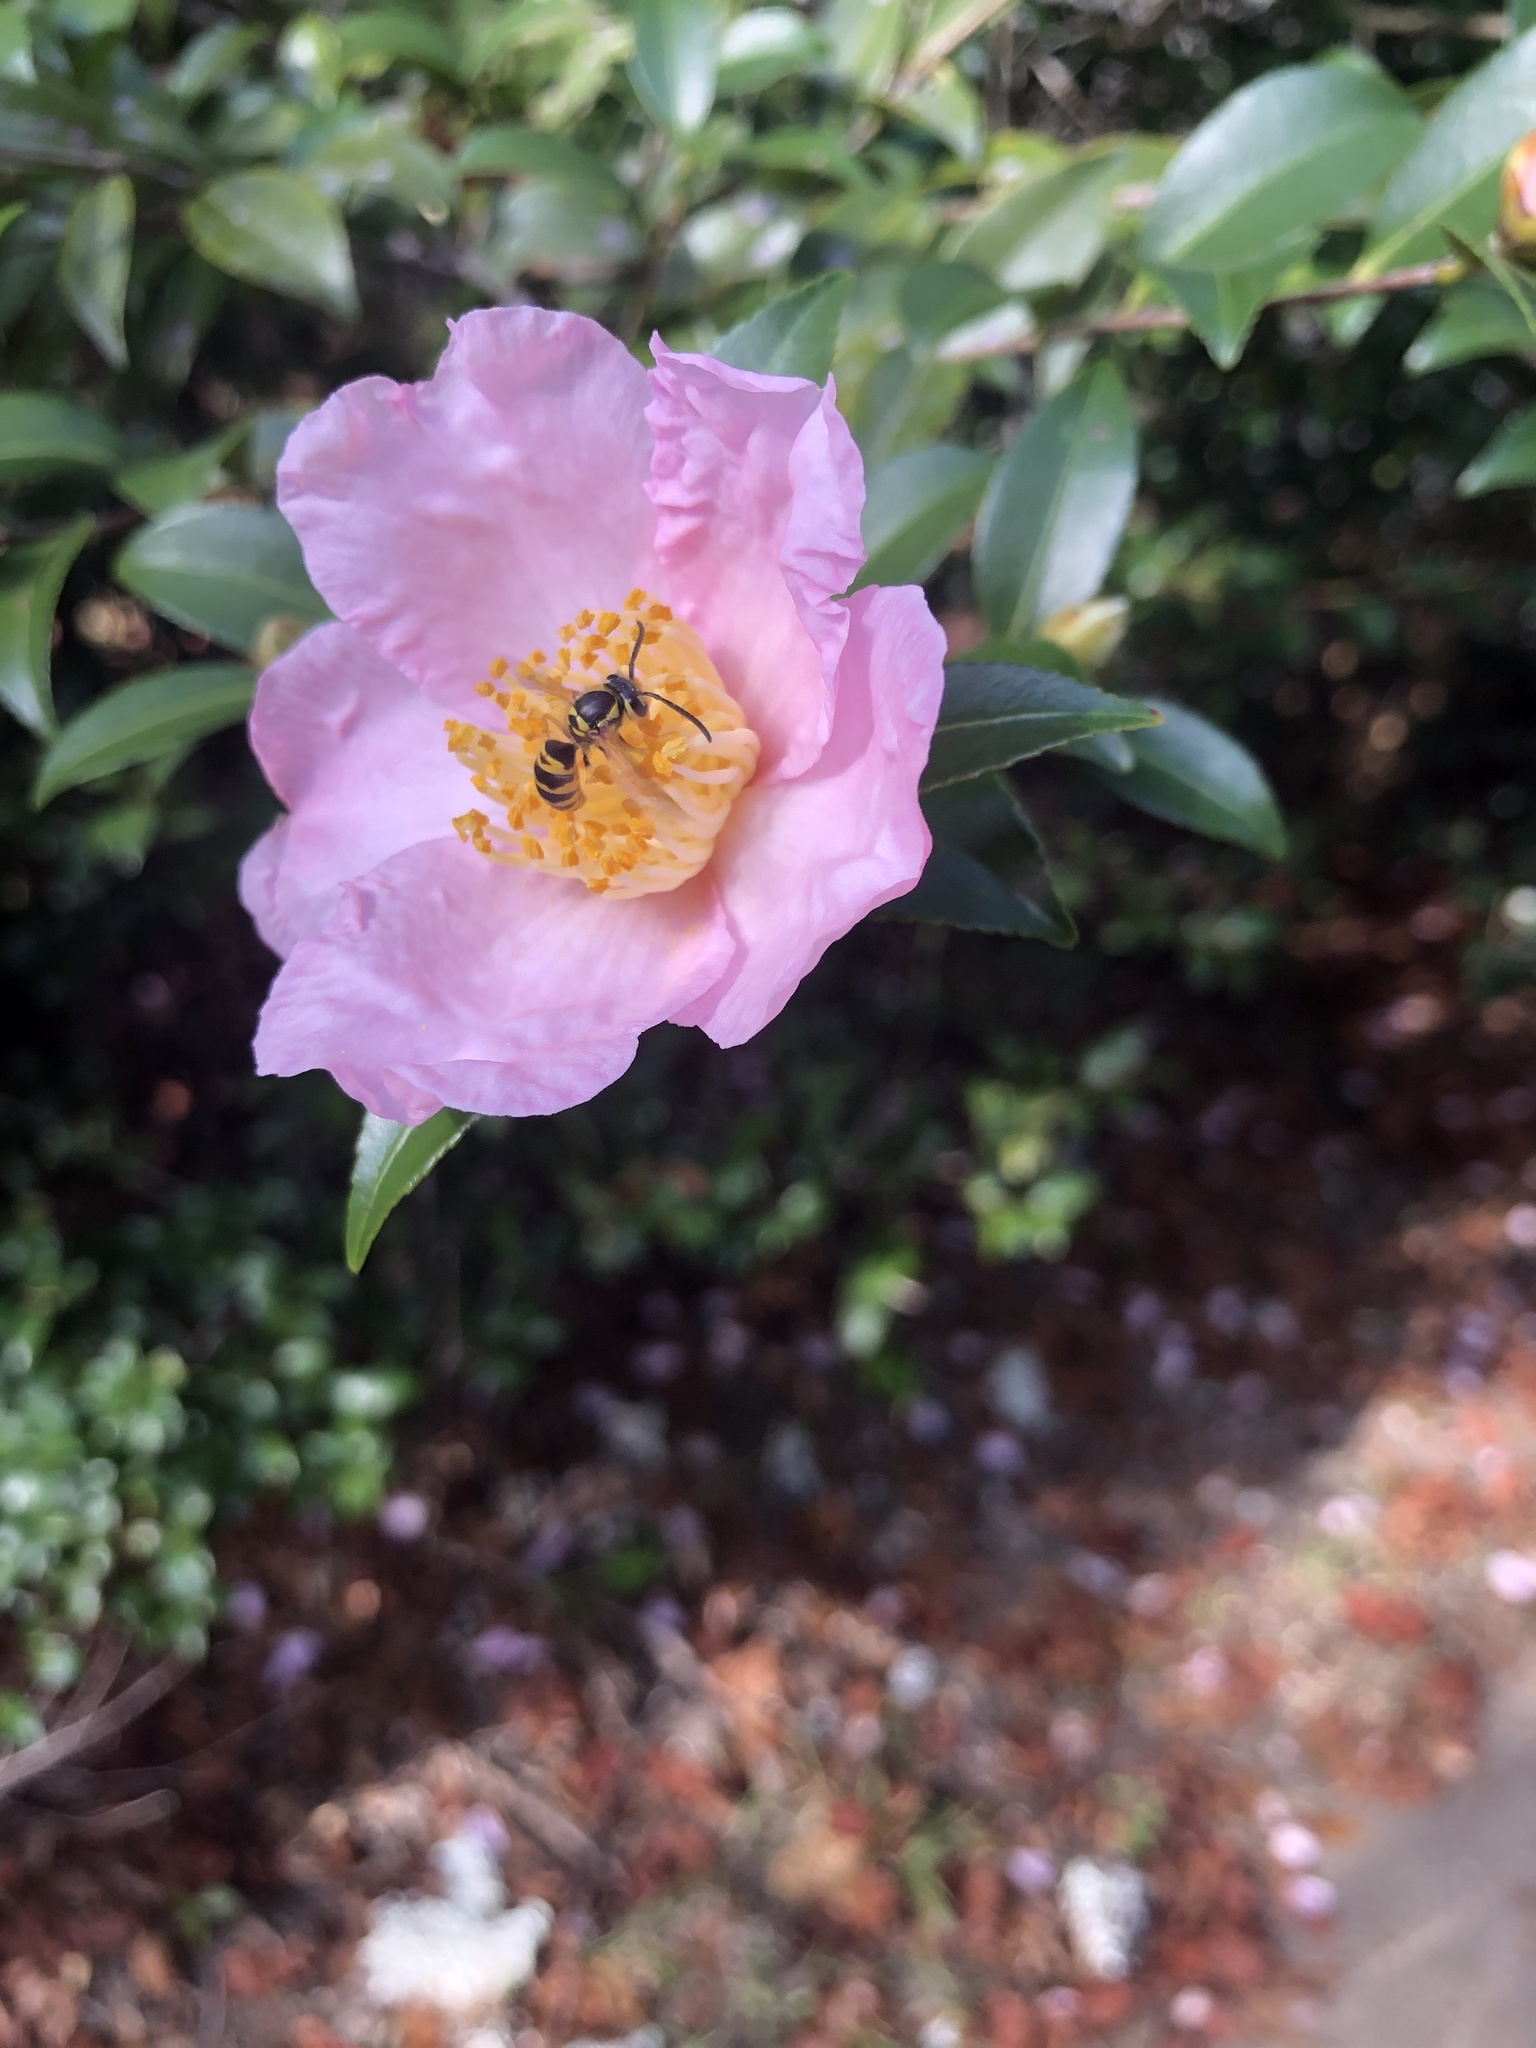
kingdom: Animalia
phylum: Arthropoda
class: Insecta
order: Hymenoptera
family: Vespidae
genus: Vespula
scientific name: Vespula maculifrons
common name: Eastern yellowjacket
